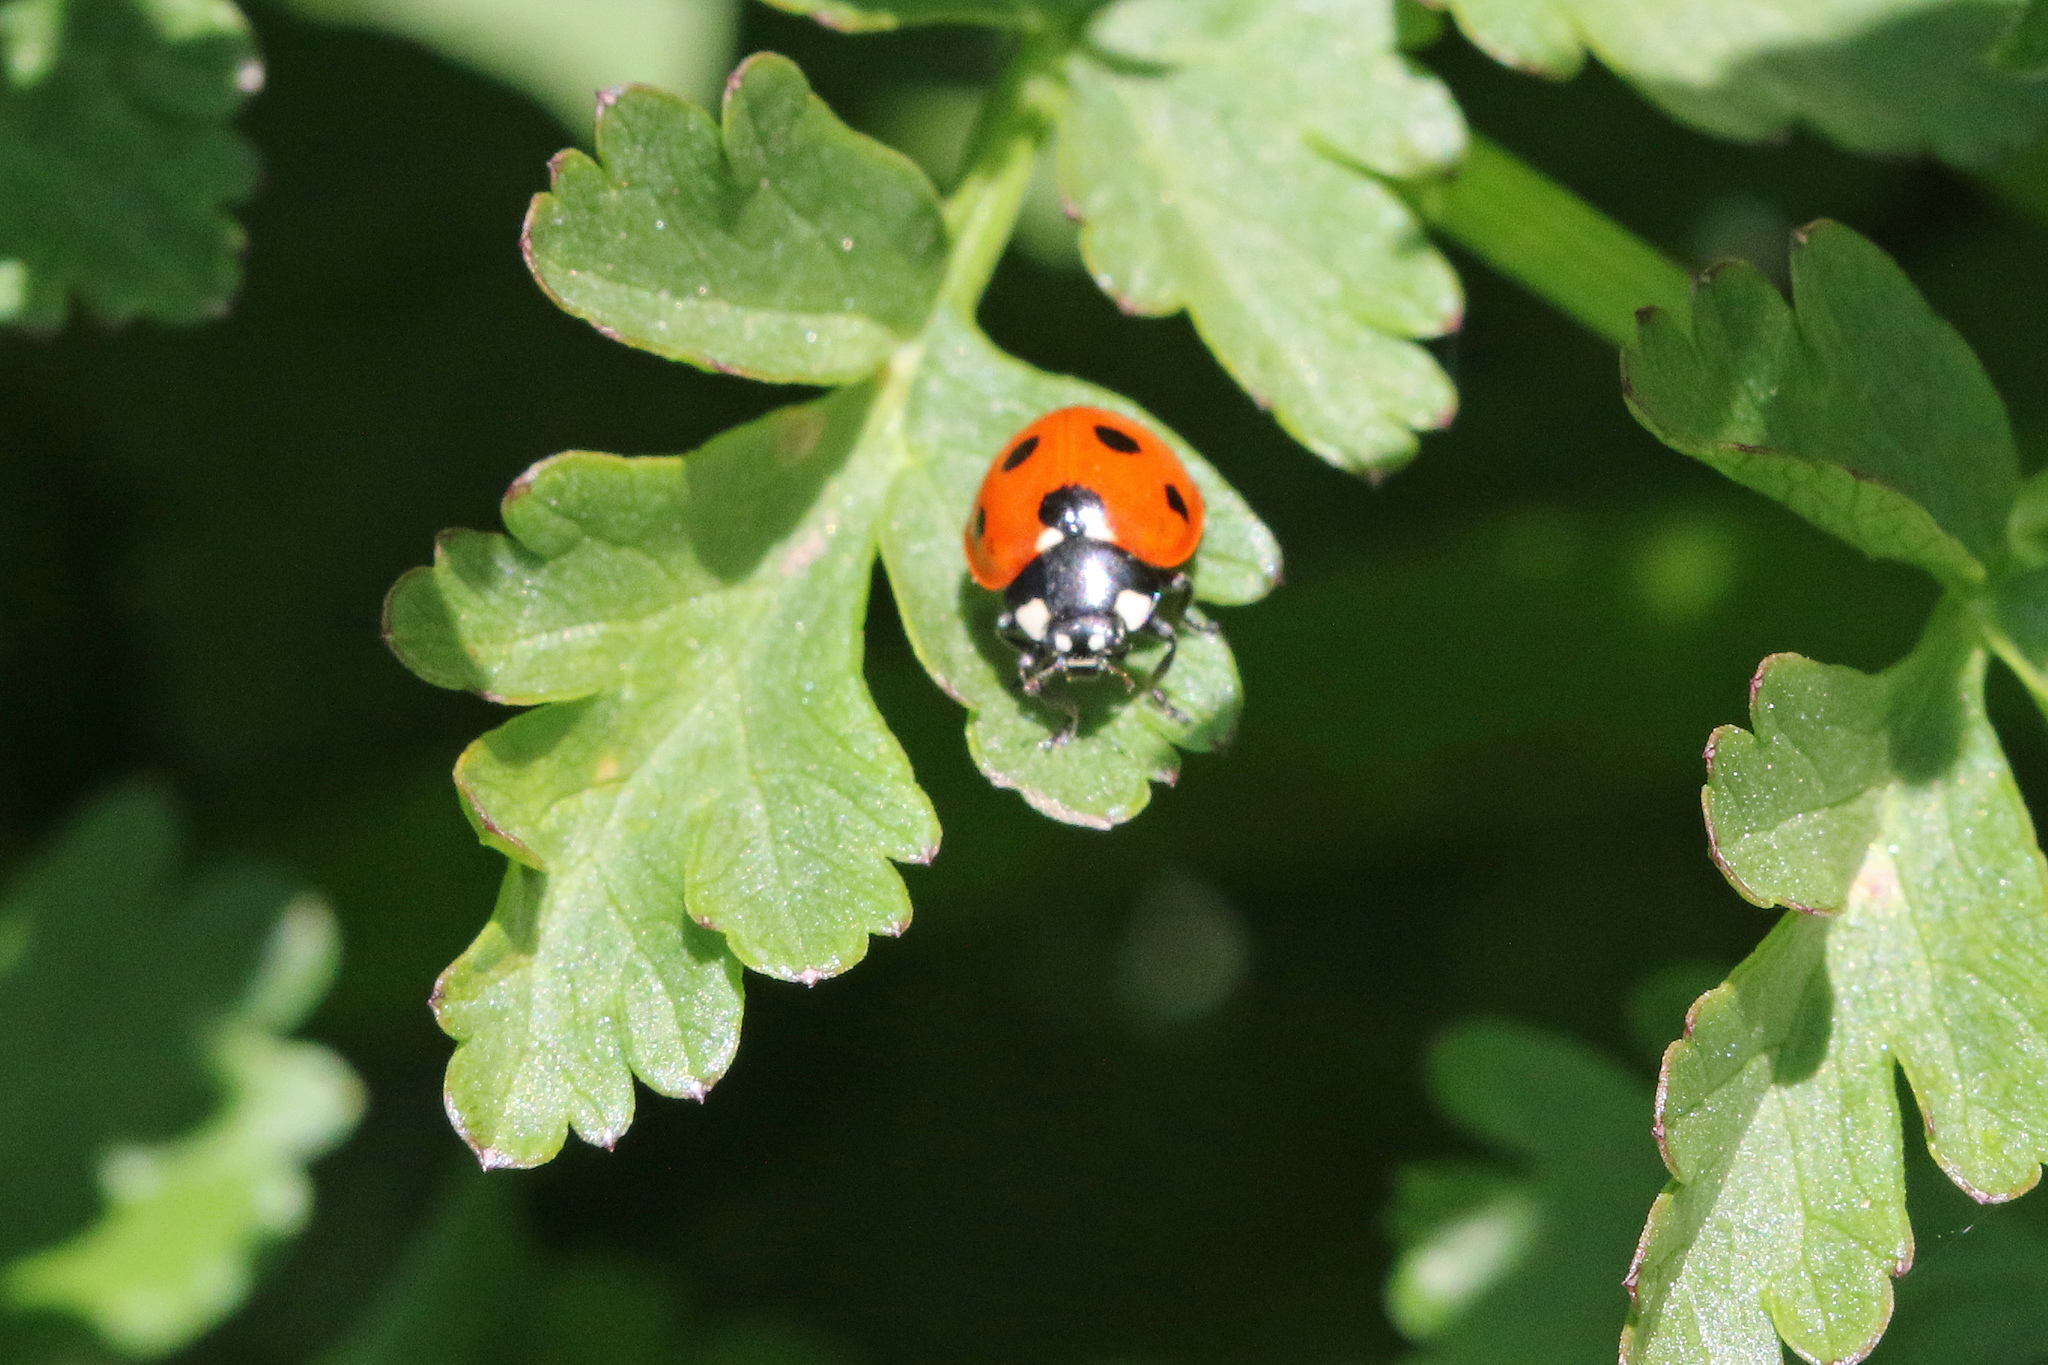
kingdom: Animalia
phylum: Arthropoda
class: Insecta
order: Coleoptera
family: Coccinellidae
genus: Coccinella
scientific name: Coccinella septempunctata
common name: Sevenspotted lady beetle
